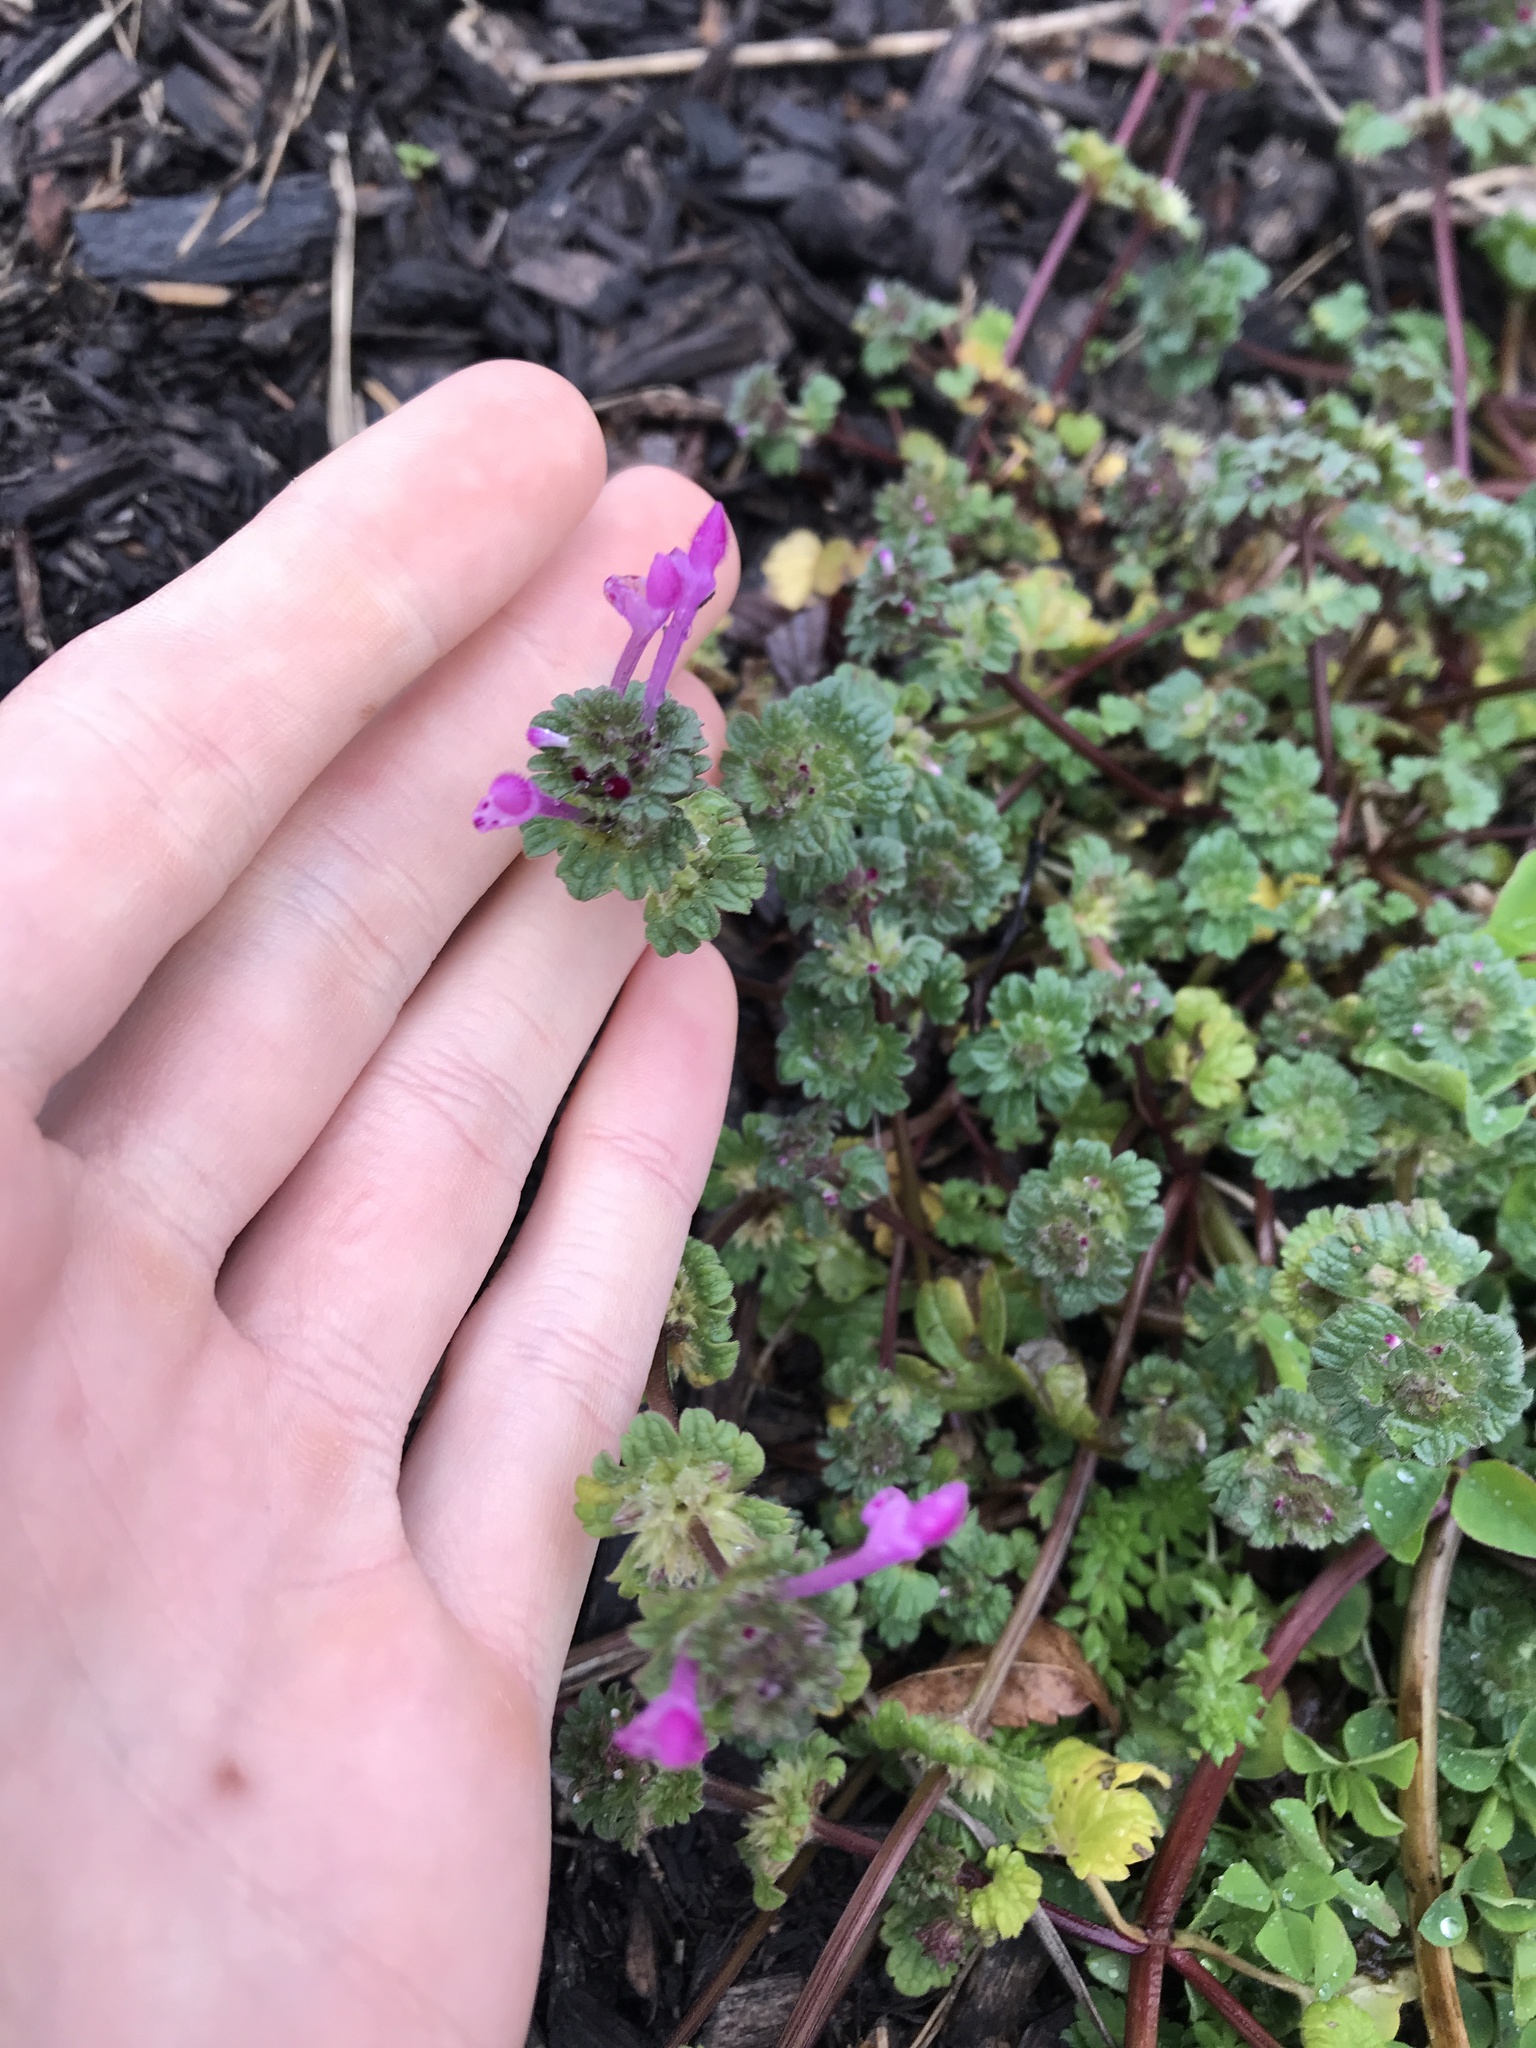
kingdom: Plantae
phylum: Tracheophyta
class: Magnoliopsida
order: Lamiales
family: Lamiaceae
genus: Lamium
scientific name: Lamium amplexicaule
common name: Henbit dead-nettle
